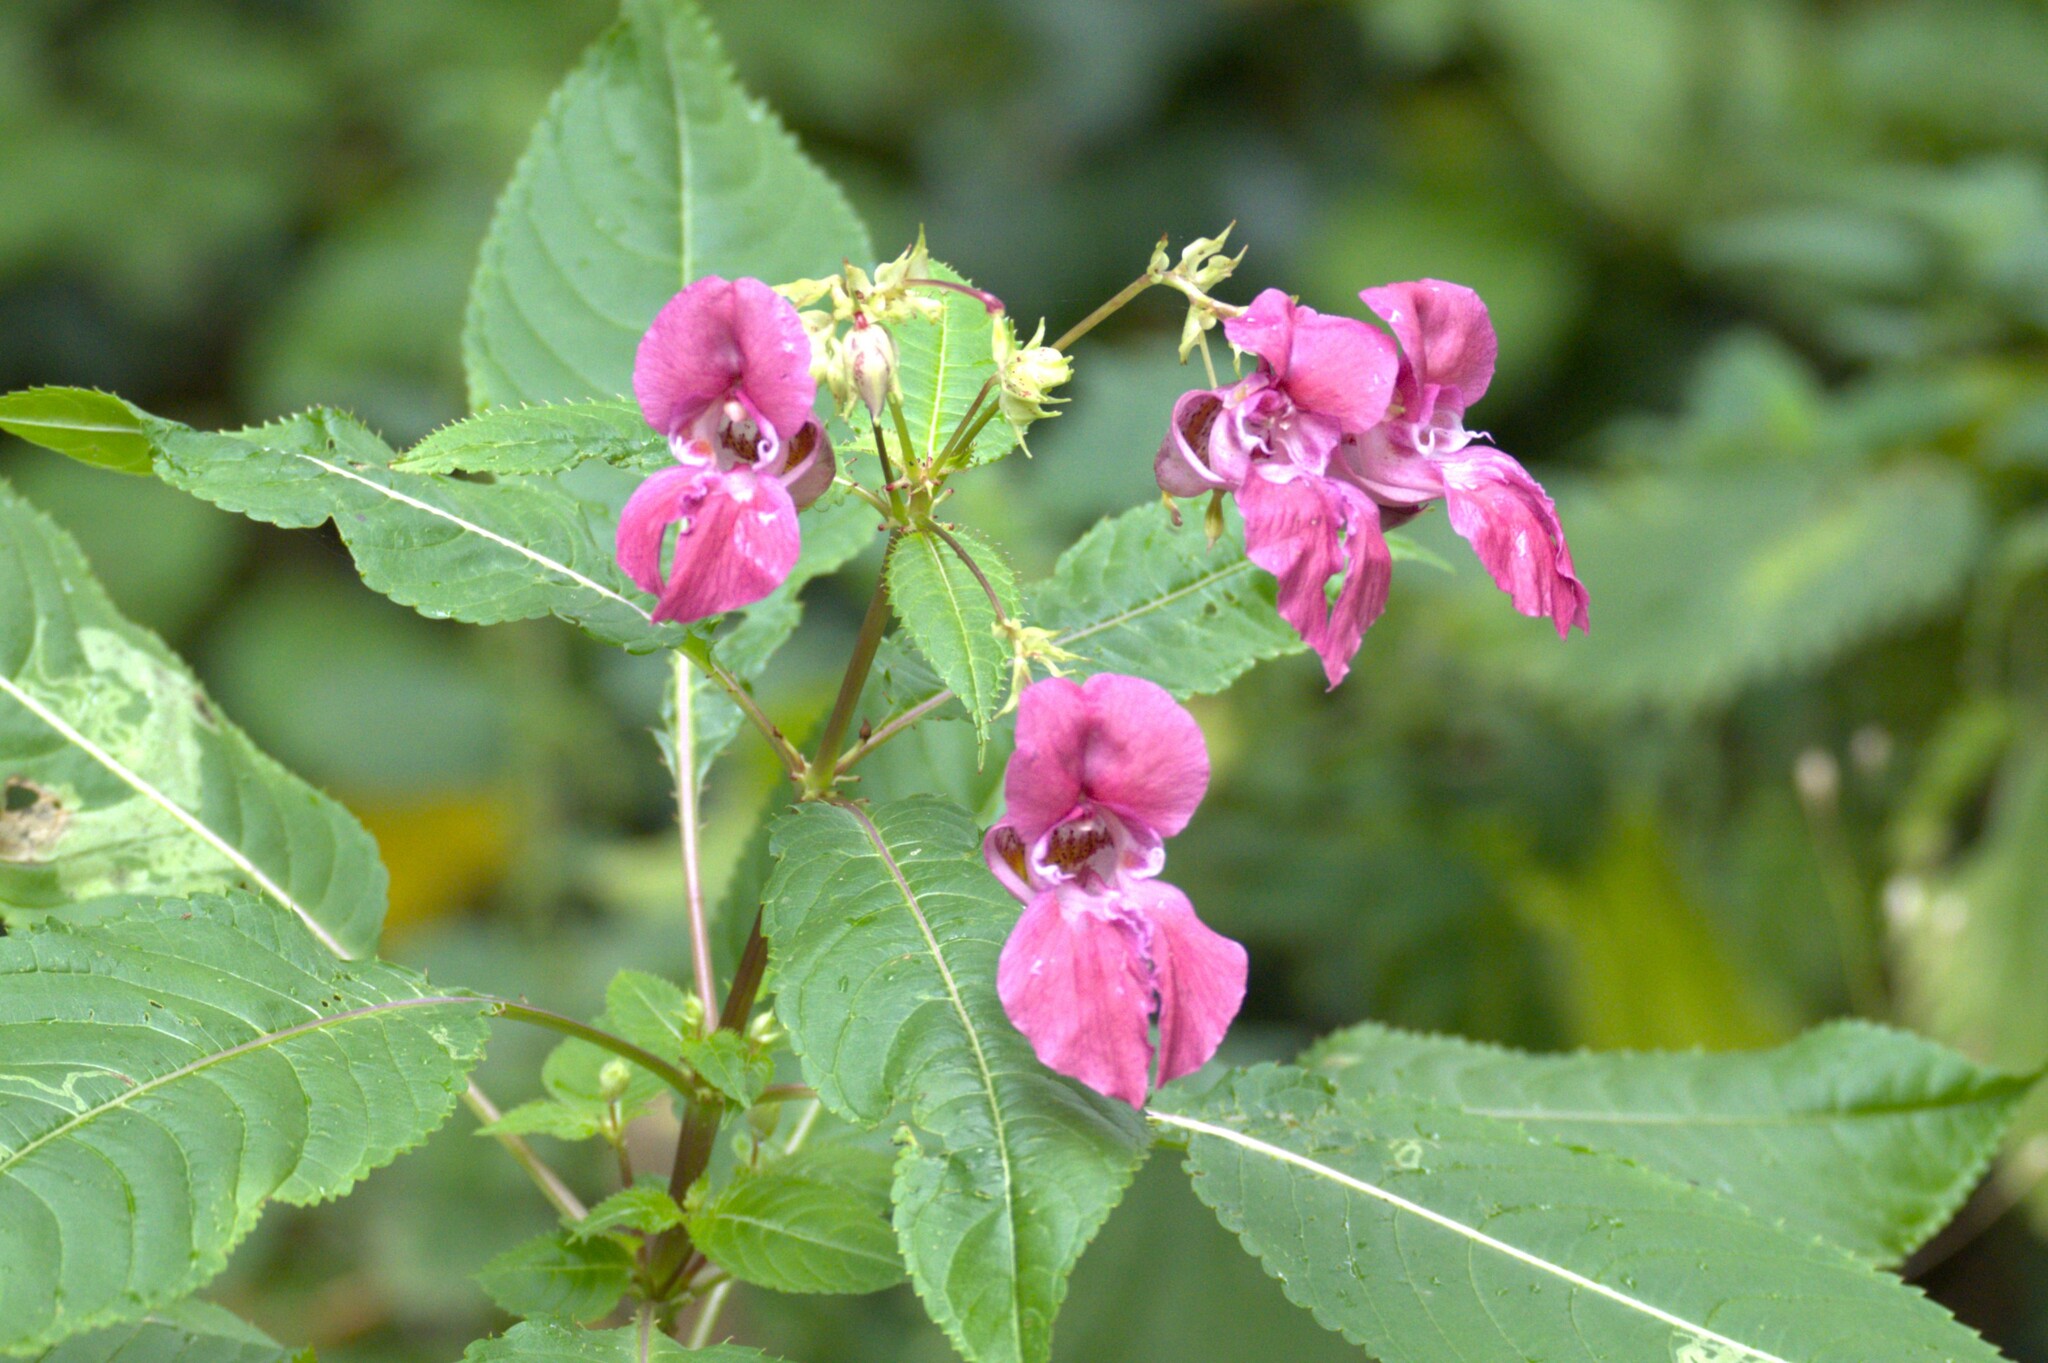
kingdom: Plantae
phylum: Tracheophyta
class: Magnoliopsida
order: Ericales
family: Balsaminaceae
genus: Impatiens
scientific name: Impatiens glandulifera
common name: Himalayan balsam
